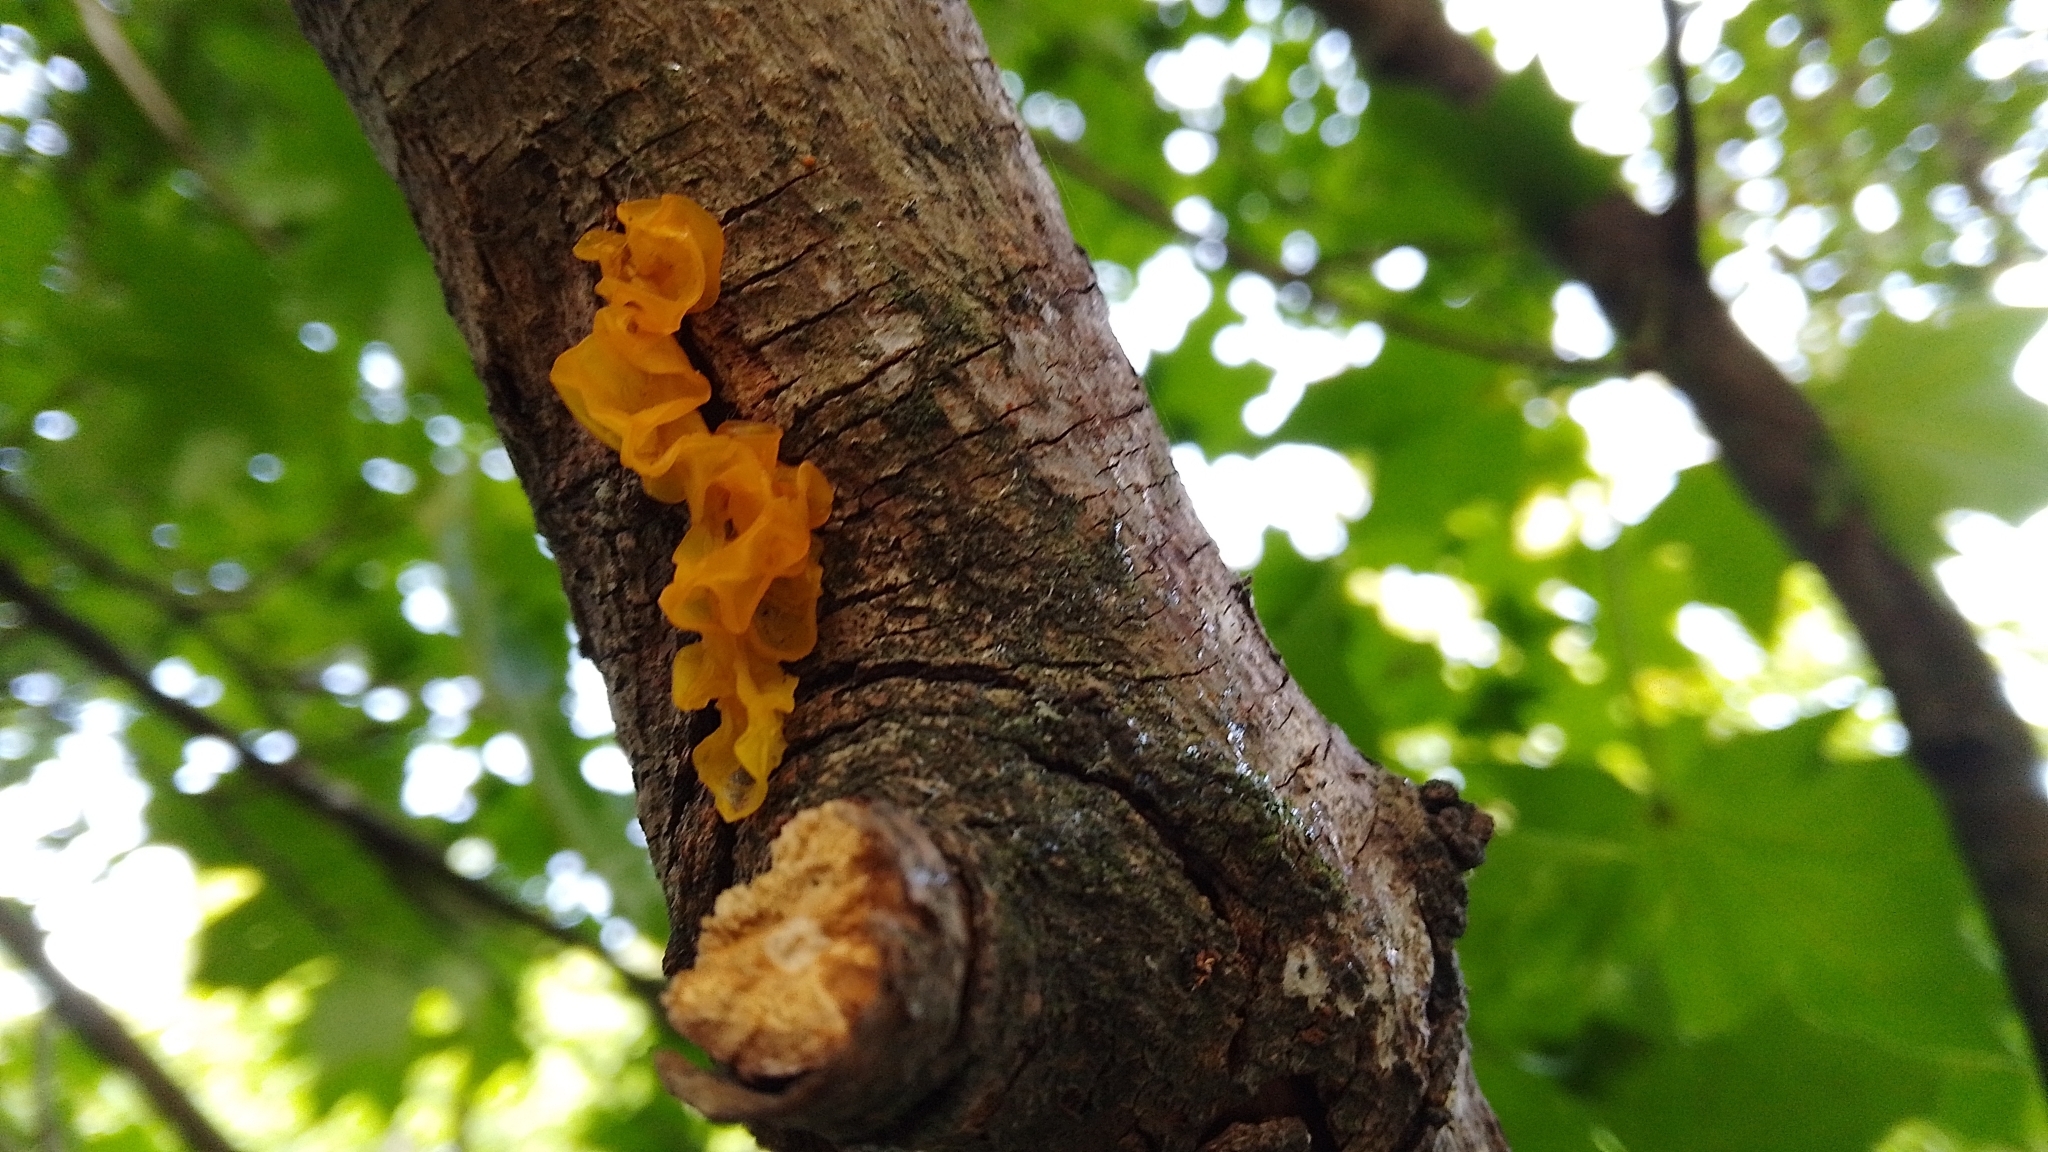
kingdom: Fungi
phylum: Basidiomycota
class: Tremellomycetes
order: Tremellales
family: Tremellaceae
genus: Tremella
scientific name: Tremella mesenterica
